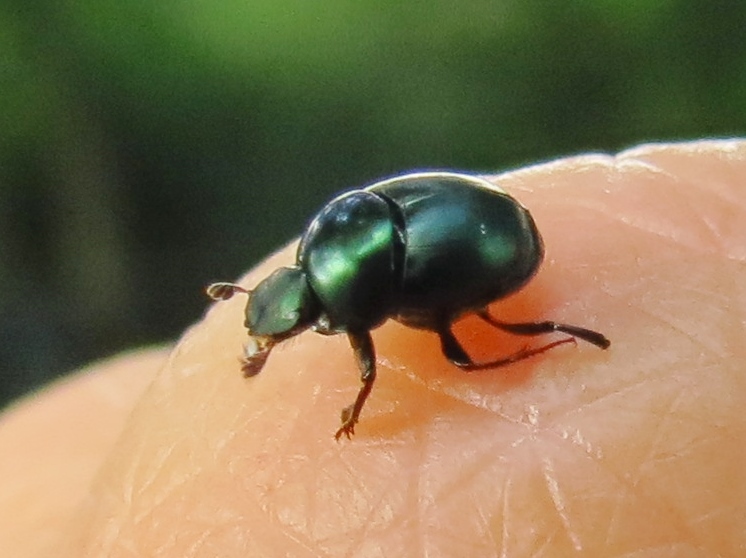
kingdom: Animalia
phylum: Arthropoda
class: Insecta
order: Coleoptera
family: Scarabaeidae
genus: Canthon
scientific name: Canthon viridis
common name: Tumblebug
